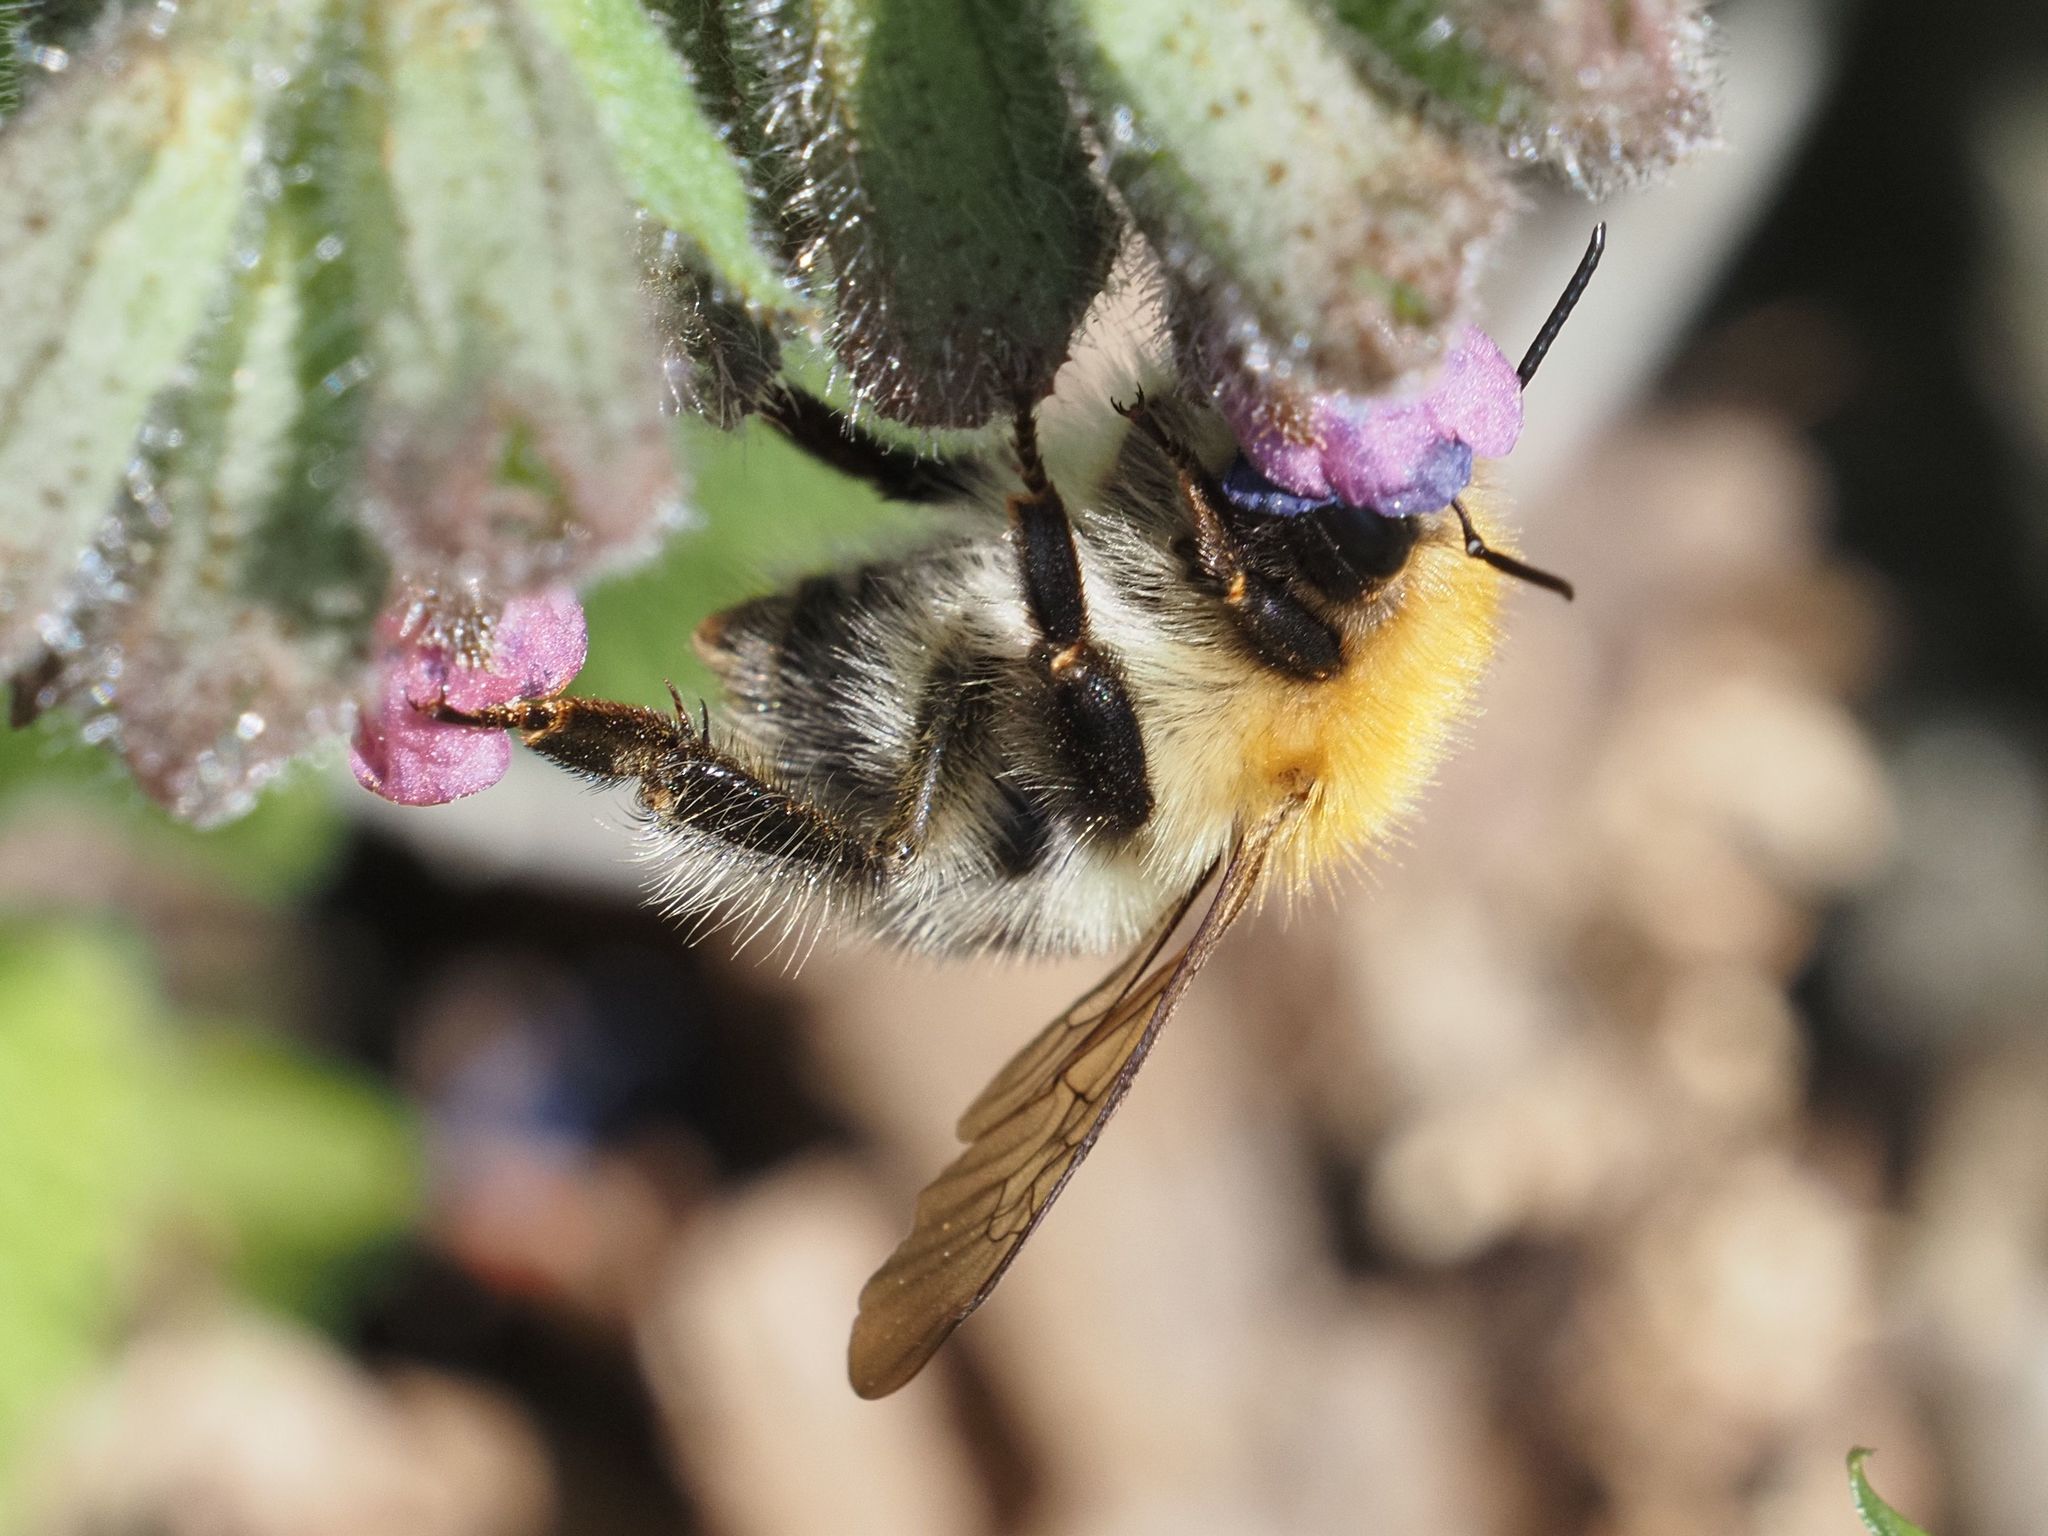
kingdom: Animalia
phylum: Arthropoda
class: Insecta
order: Hymenoptera
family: Apidae
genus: Bombus
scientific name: Bombus pascuorum
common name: Common carder bee
